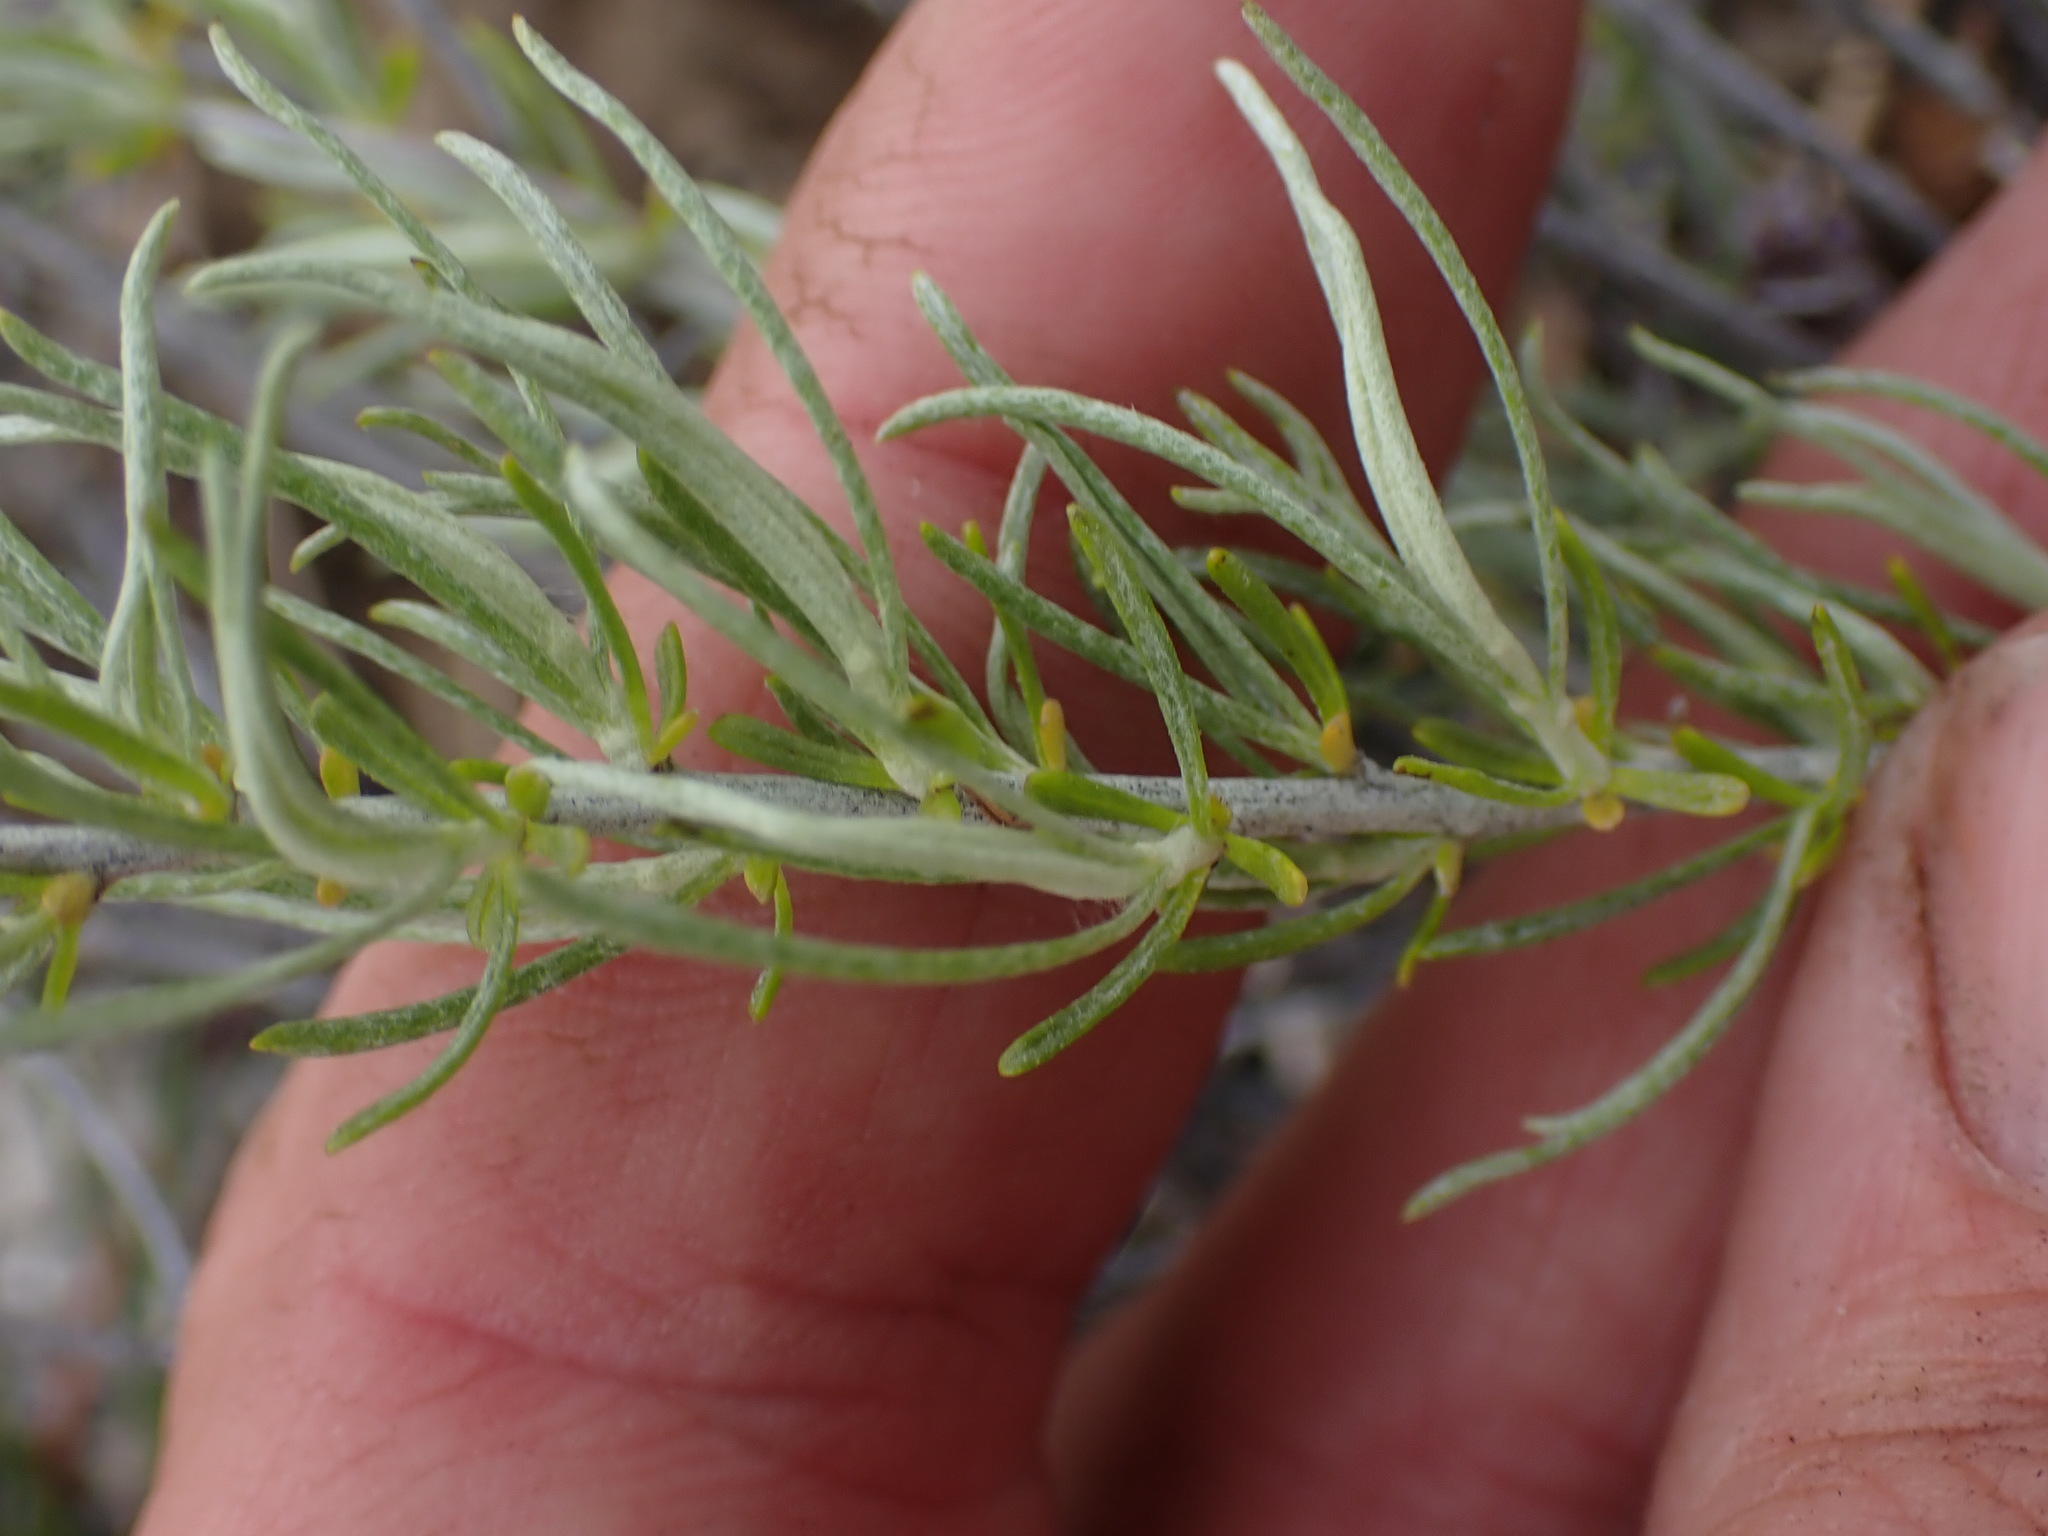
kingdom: Plantae
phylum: Tracheophyta
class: Magnoliopsida
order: Asterales
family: Asteraceae
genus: Ericameria
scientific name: Ericameria nauseosa
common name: Rubber rabbitbrush
